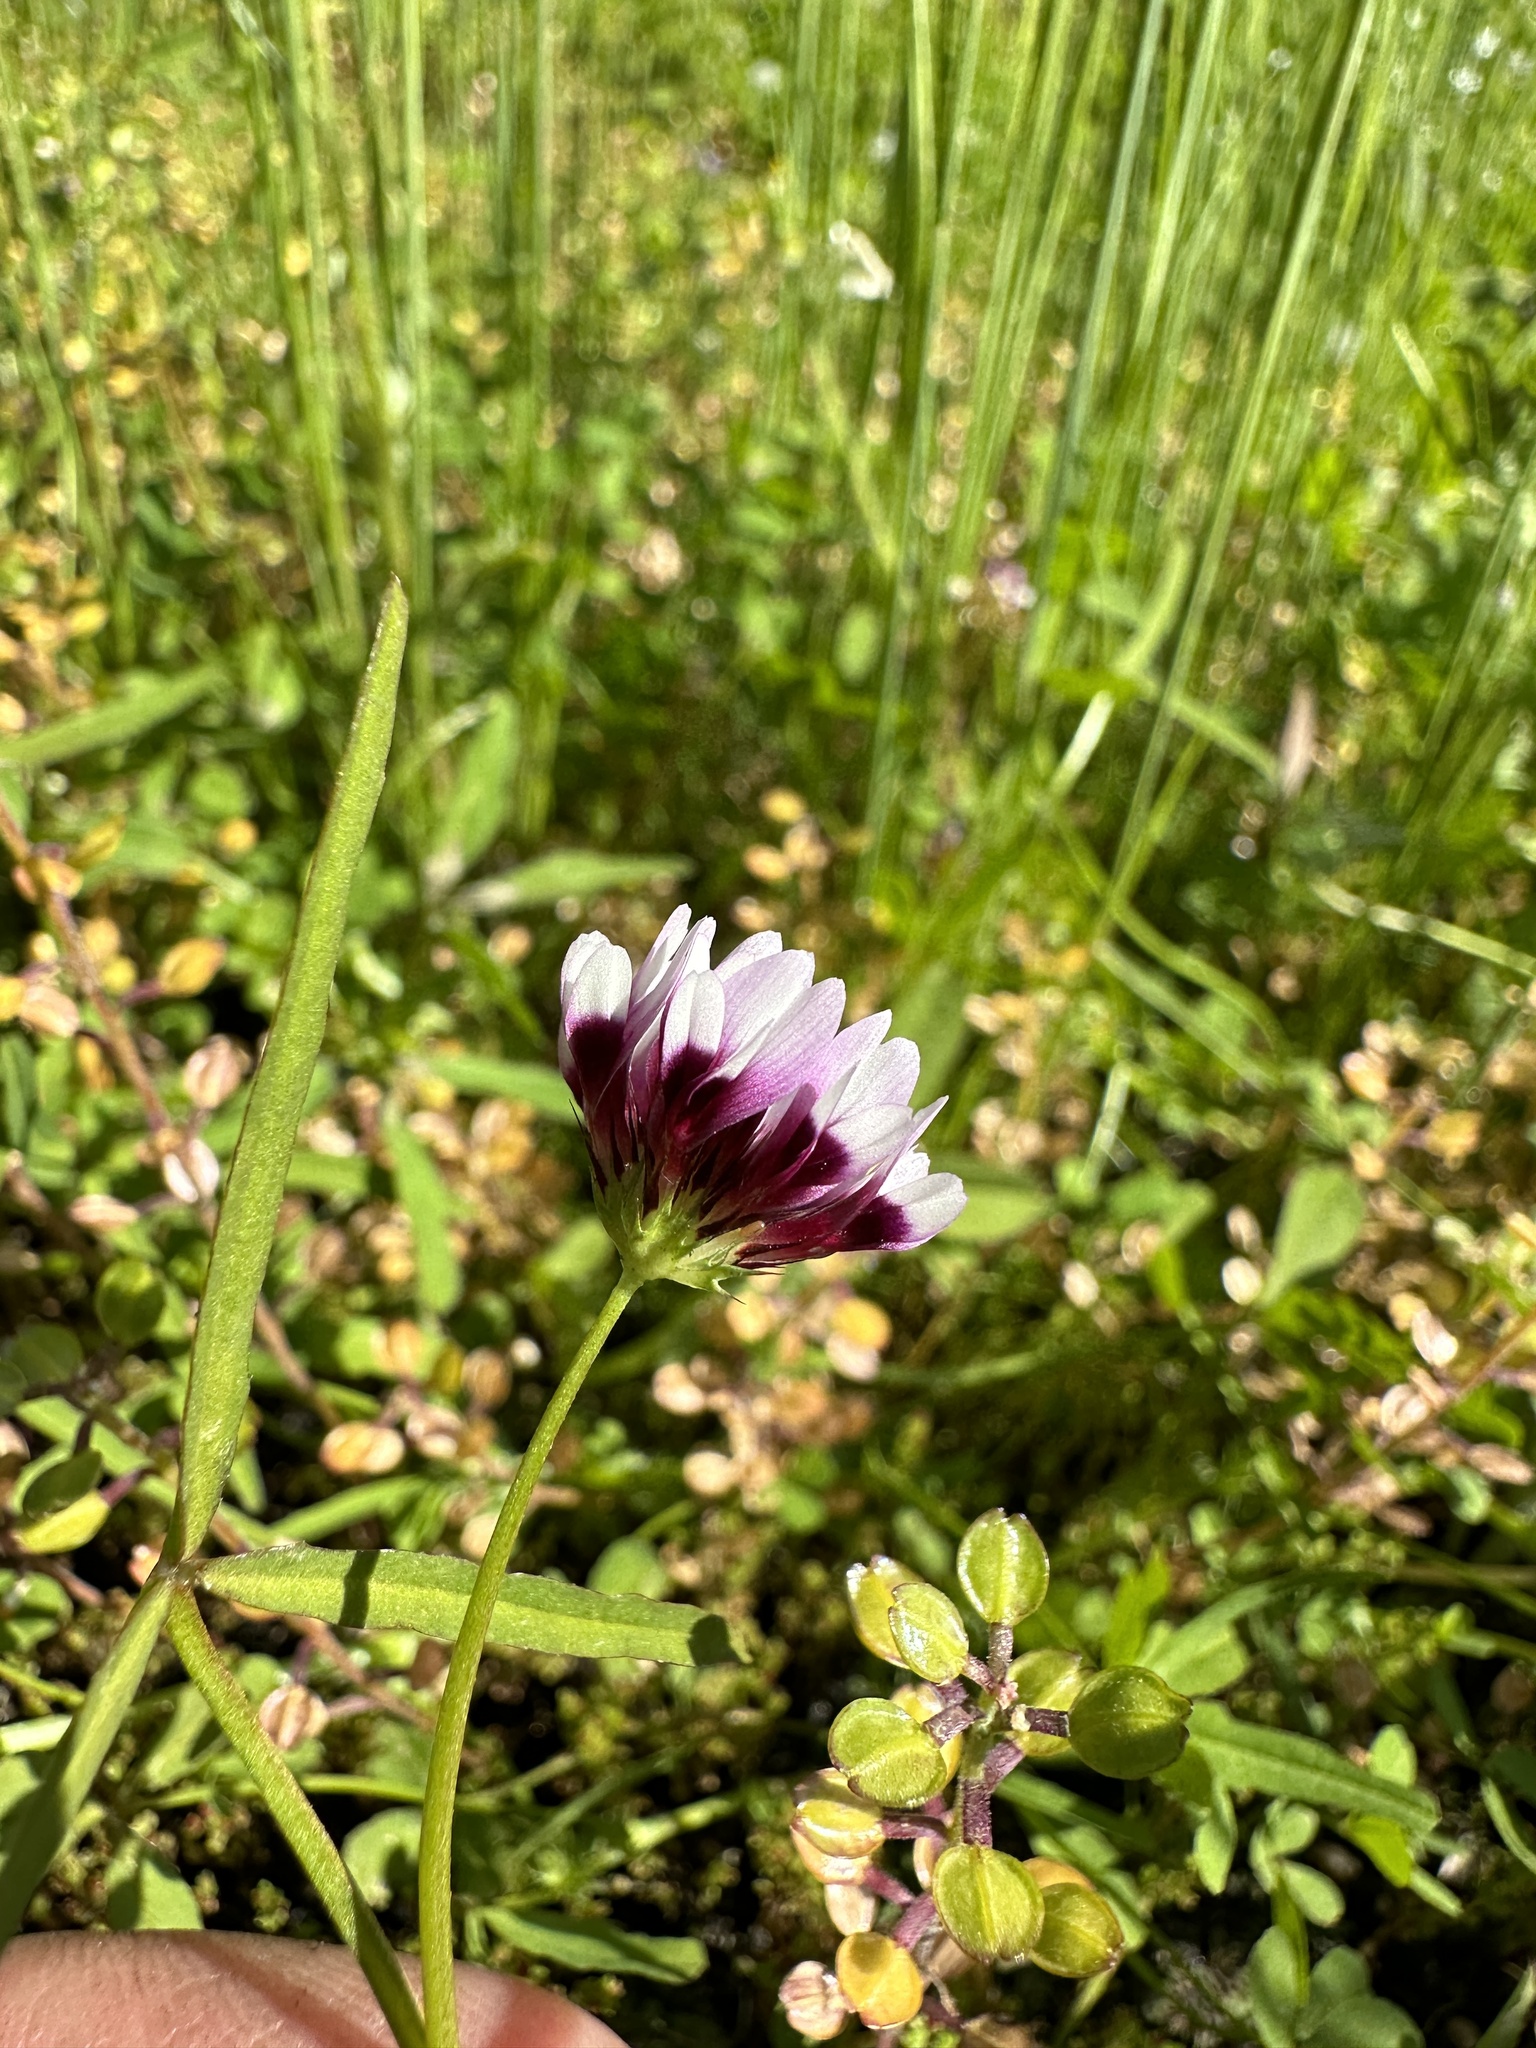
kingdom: Plantae
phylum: Tracheophyta
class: Magnoliopsida
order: Fabales
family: Fabaceae
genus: Trifolium
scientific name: Trifolium variegatum
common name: Whitetip clover
